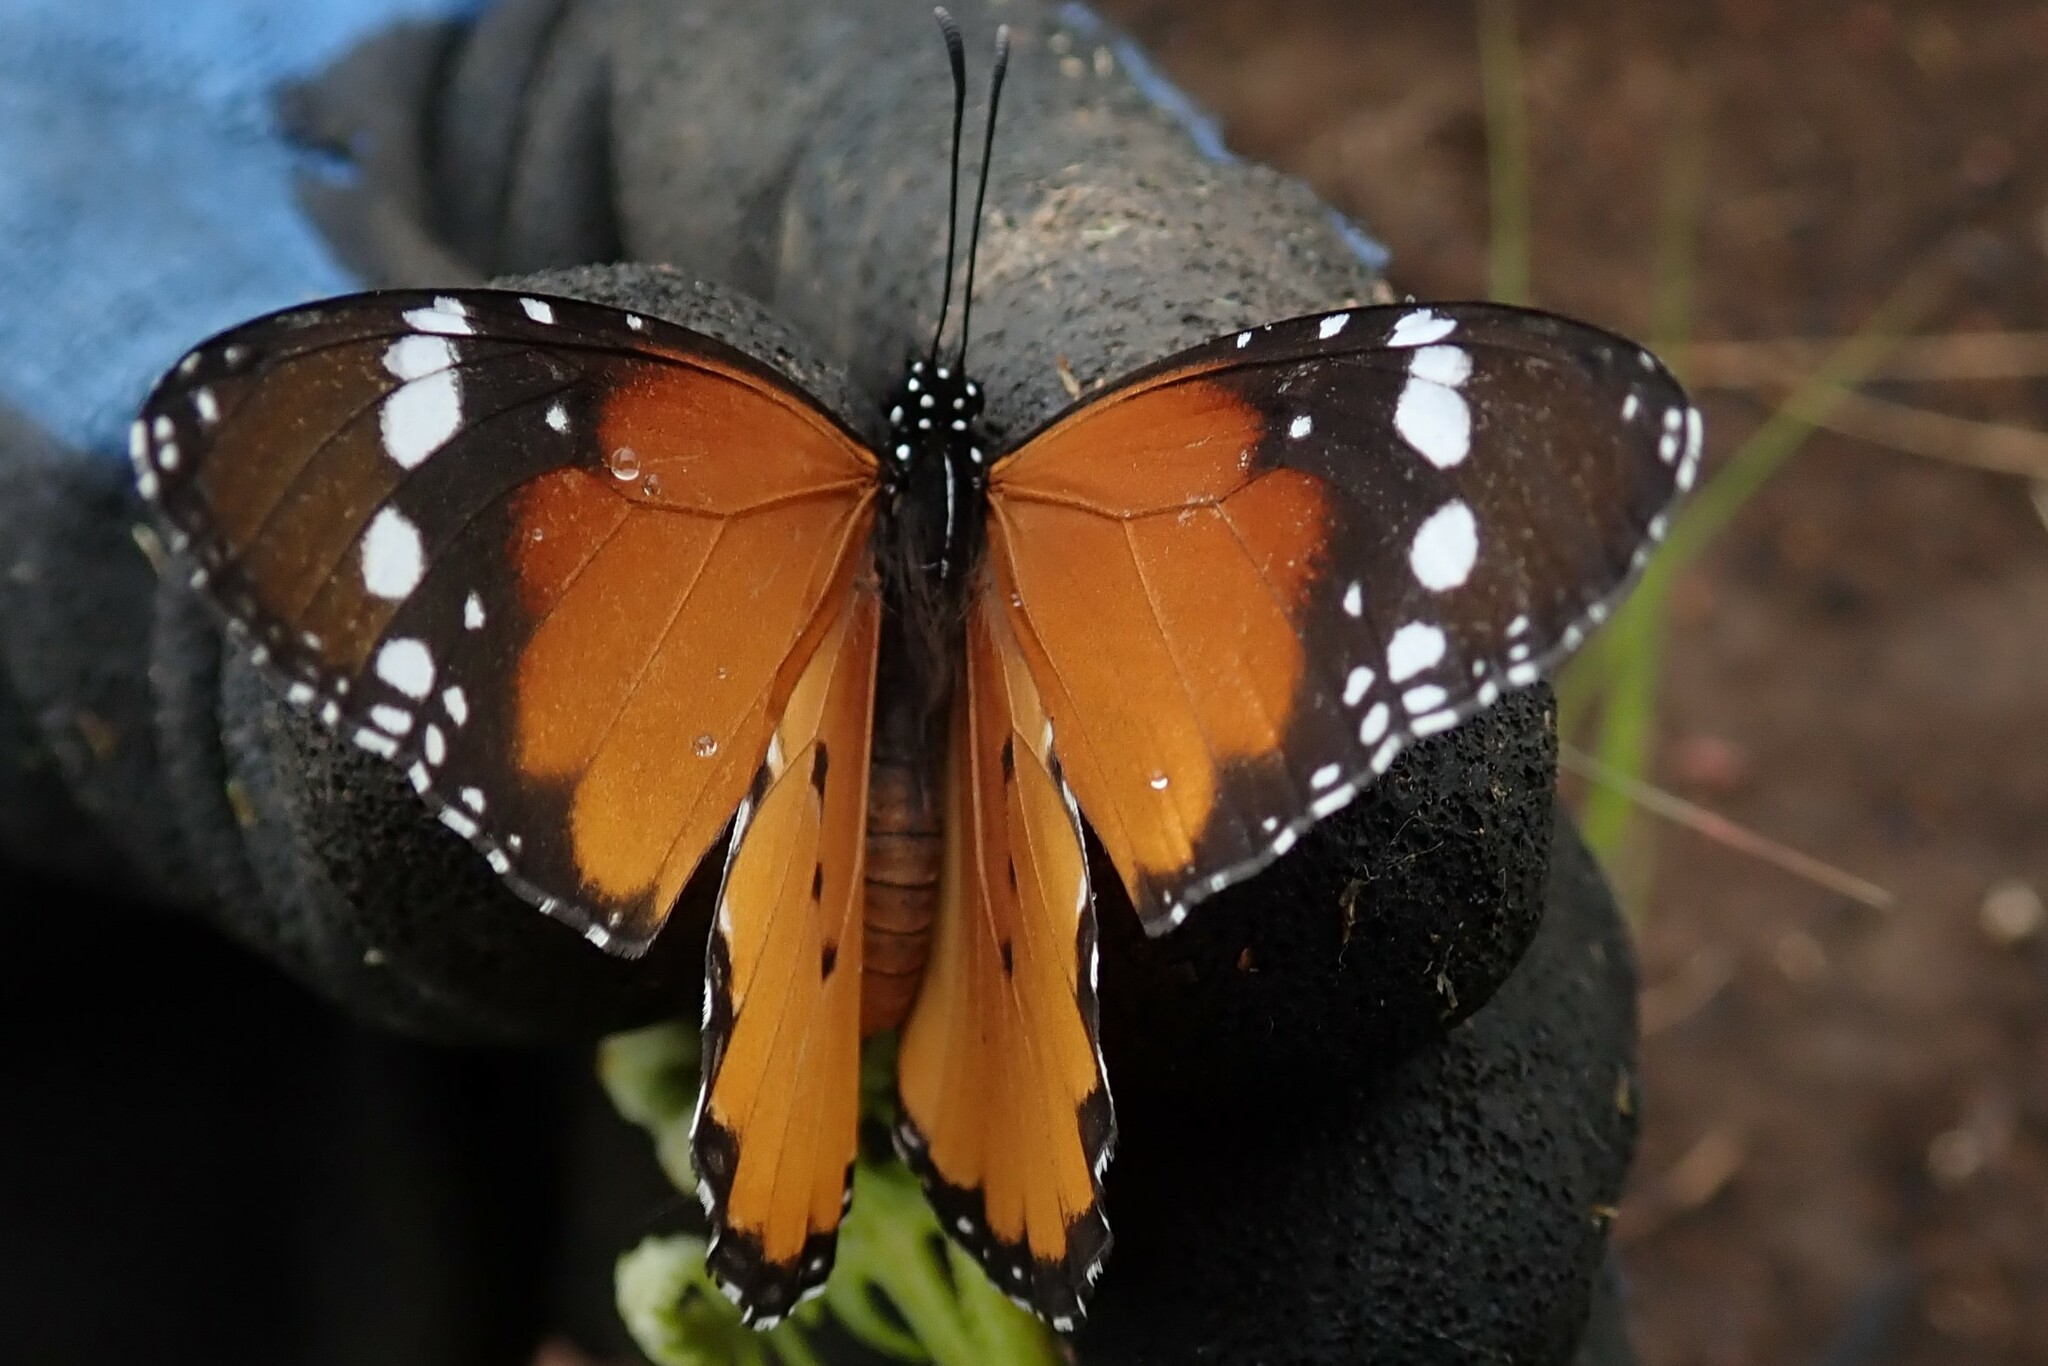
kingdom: Animalia
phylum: Arthropoda
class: Insecta
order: Lepidoptera
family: Nymphalidae
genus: Danaus
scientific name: Danaus chrysippus
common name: Plain tiger
